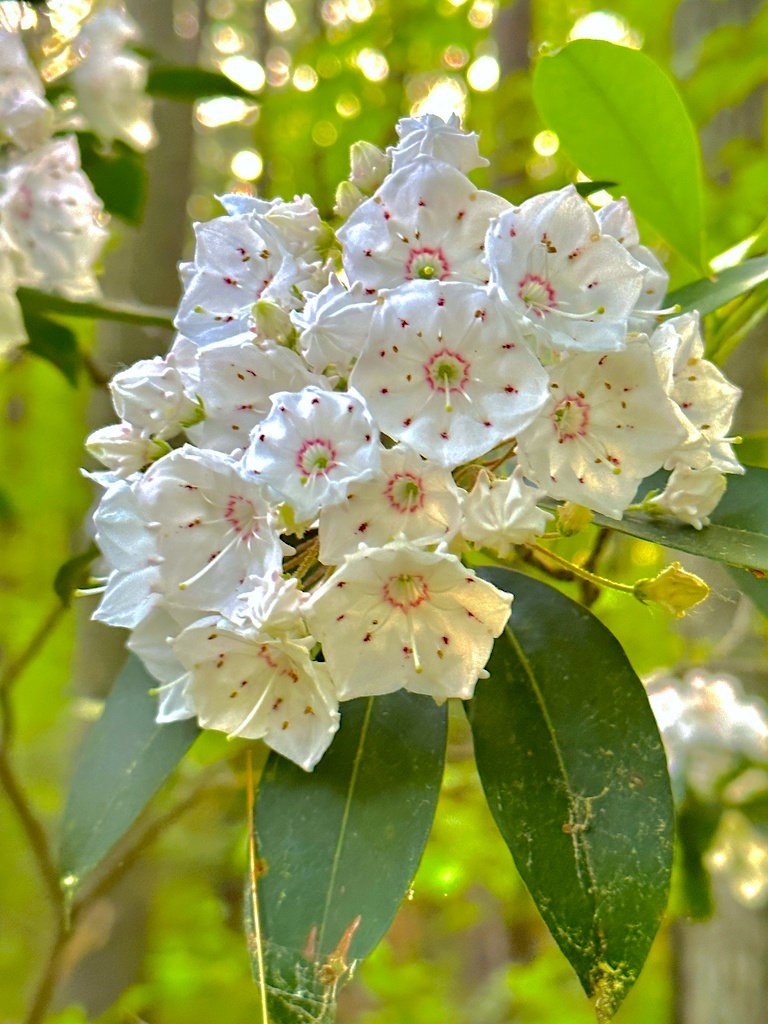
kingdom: Plantae
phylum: Tracheophyta
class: Magnoliopsida
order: Ericales
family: Ericaceae
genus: Kalmia
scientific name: Kalmia latifolia
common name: Mountain-laurel
